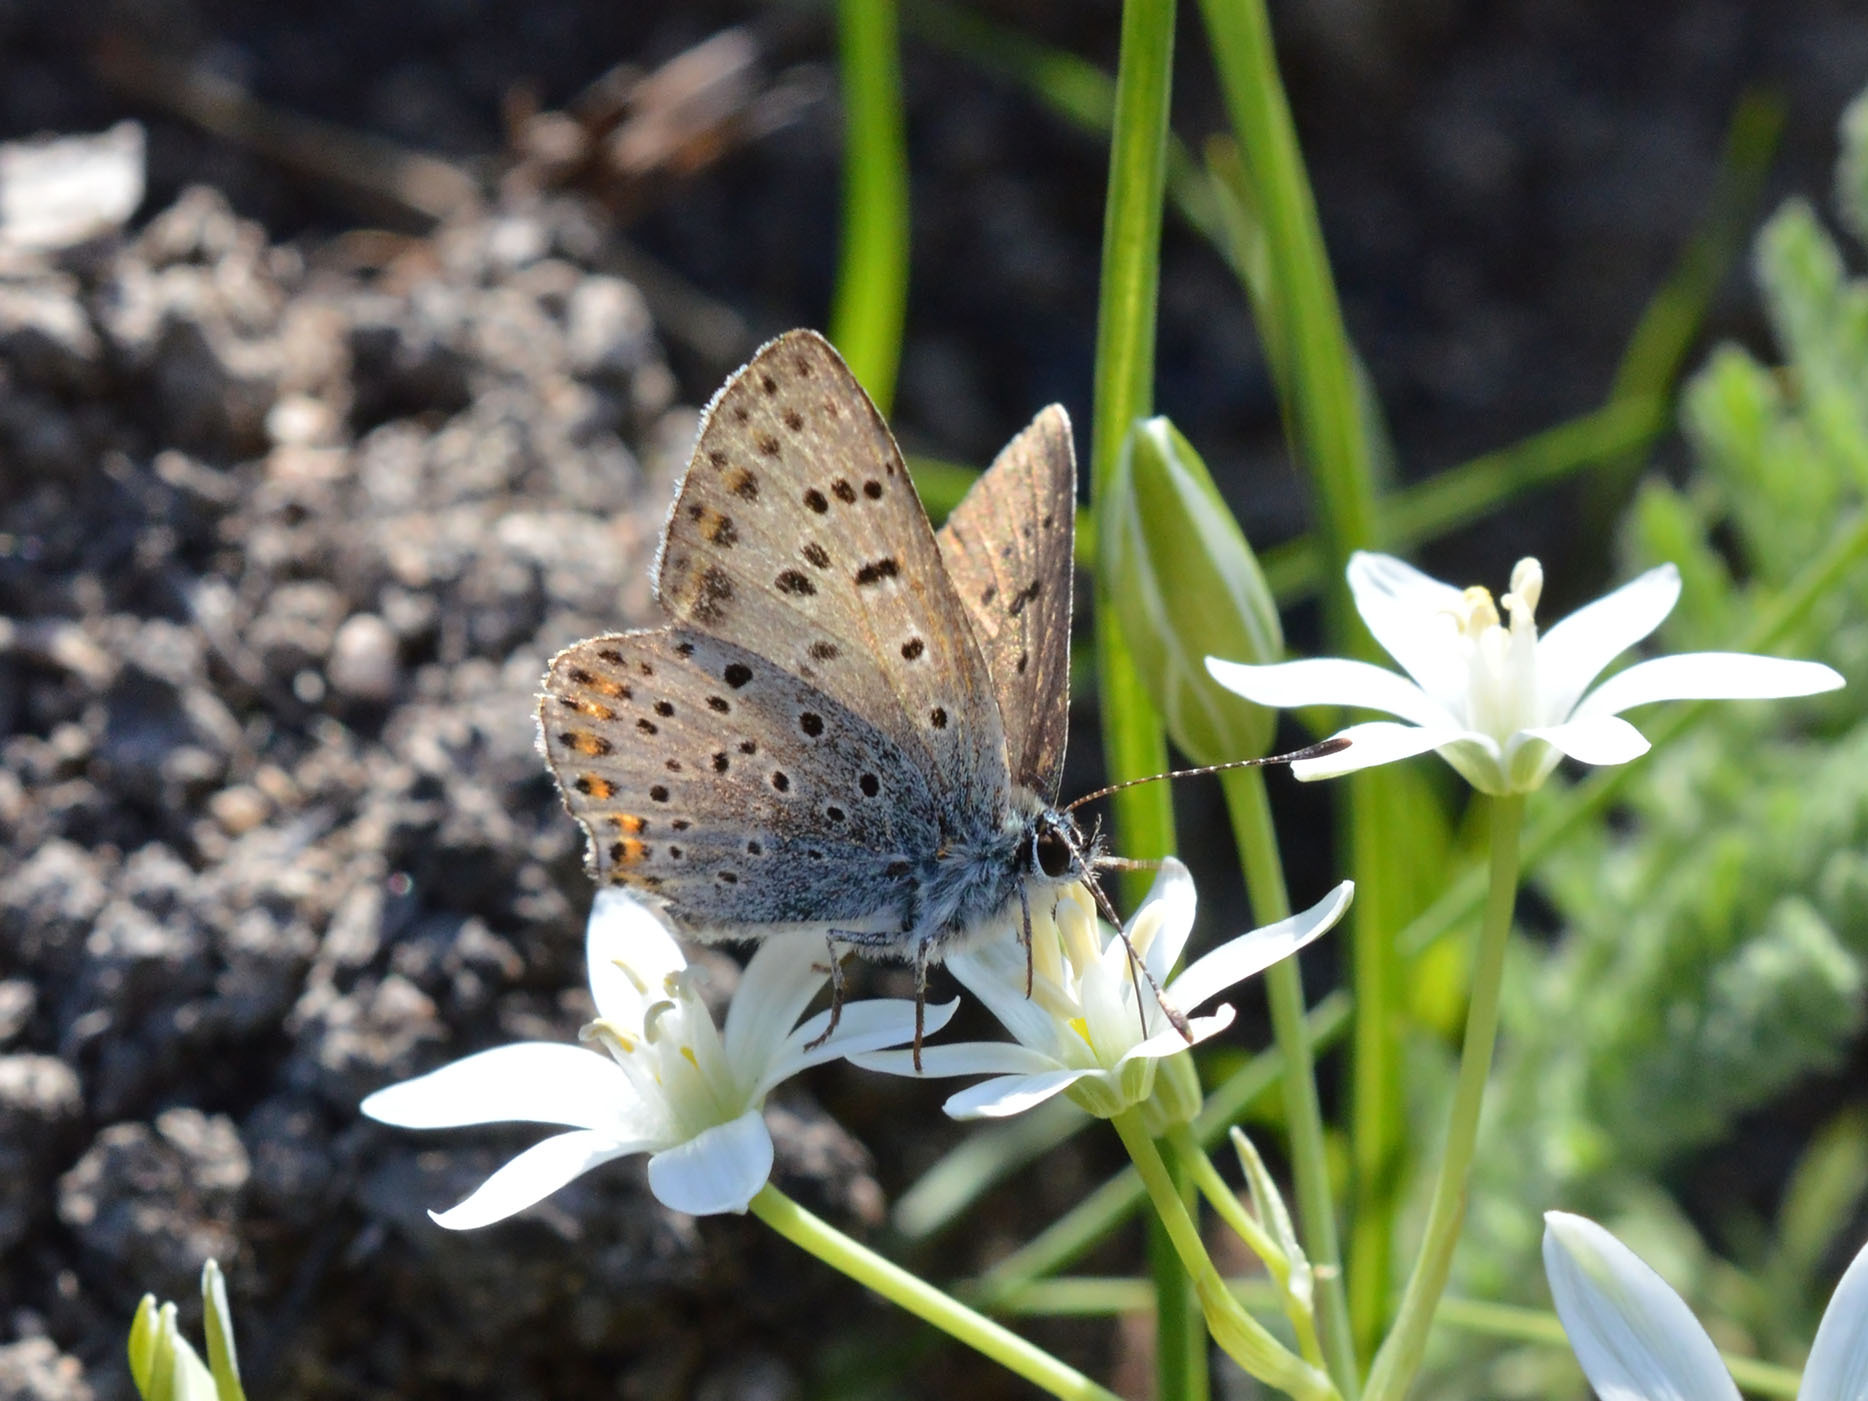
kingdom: Animalia
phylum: Arthropoda
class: Insecta
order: Lepidoptera
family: Lycaenidae
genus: Loweia
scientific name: Loweia tityrus
